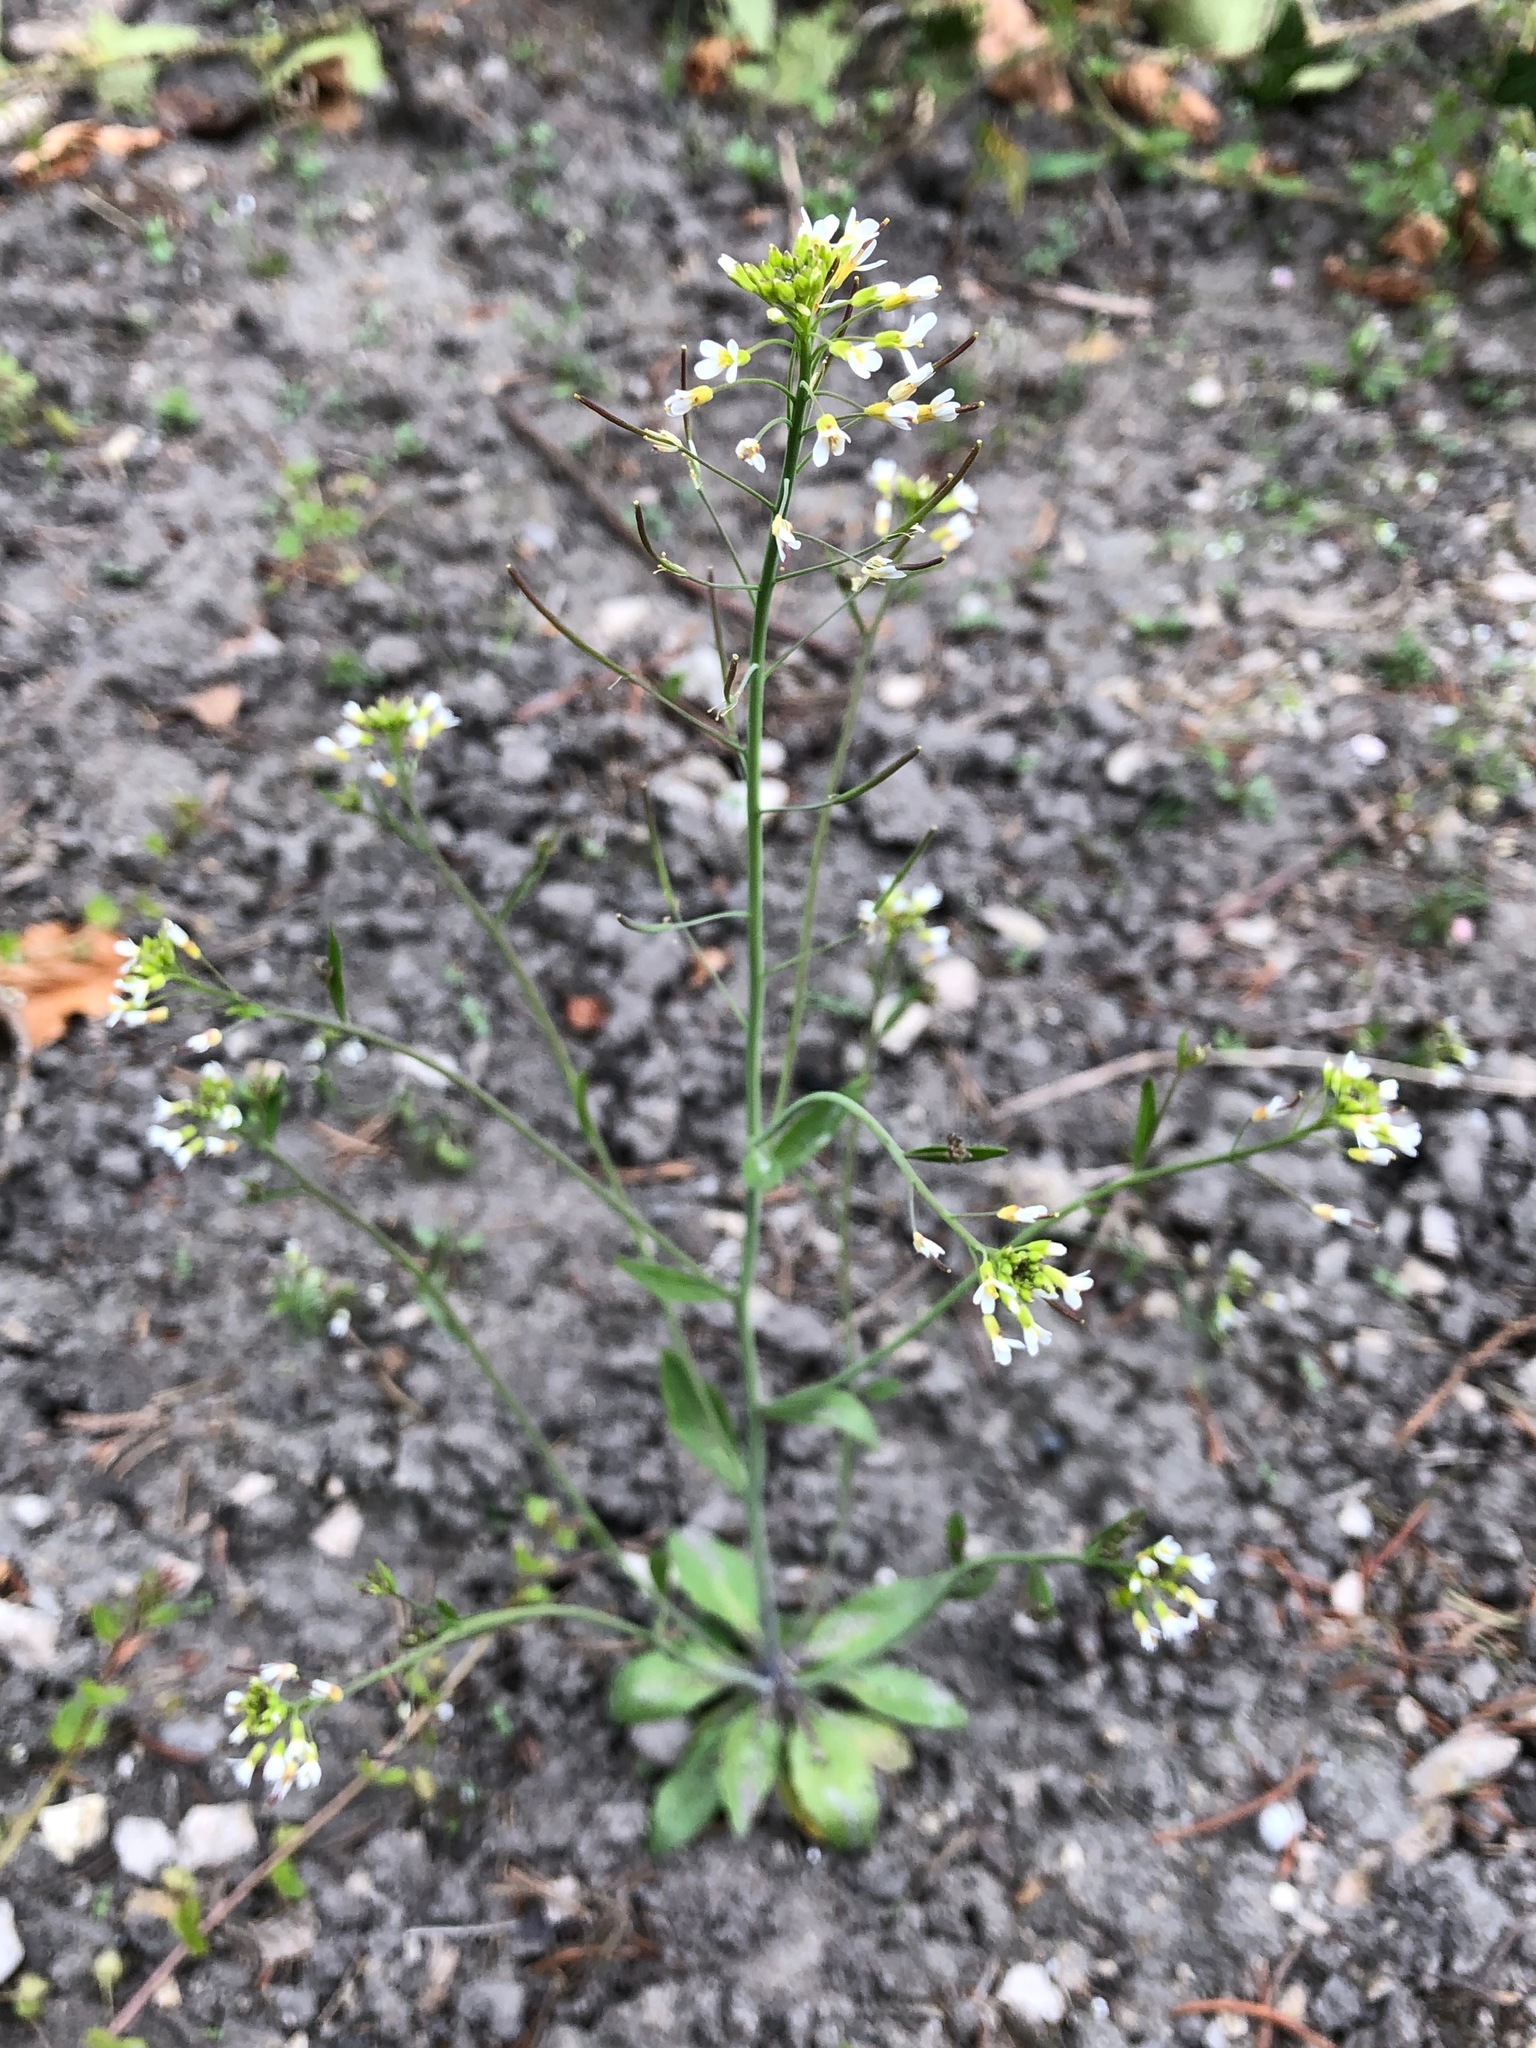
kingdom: Plantae
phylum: Tracheophyta
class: Magnoliopsida
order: Brassicales
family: Brassicaceae
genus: Arabidopsis
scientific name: Arabidopsis thaliana
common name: Thale cress
